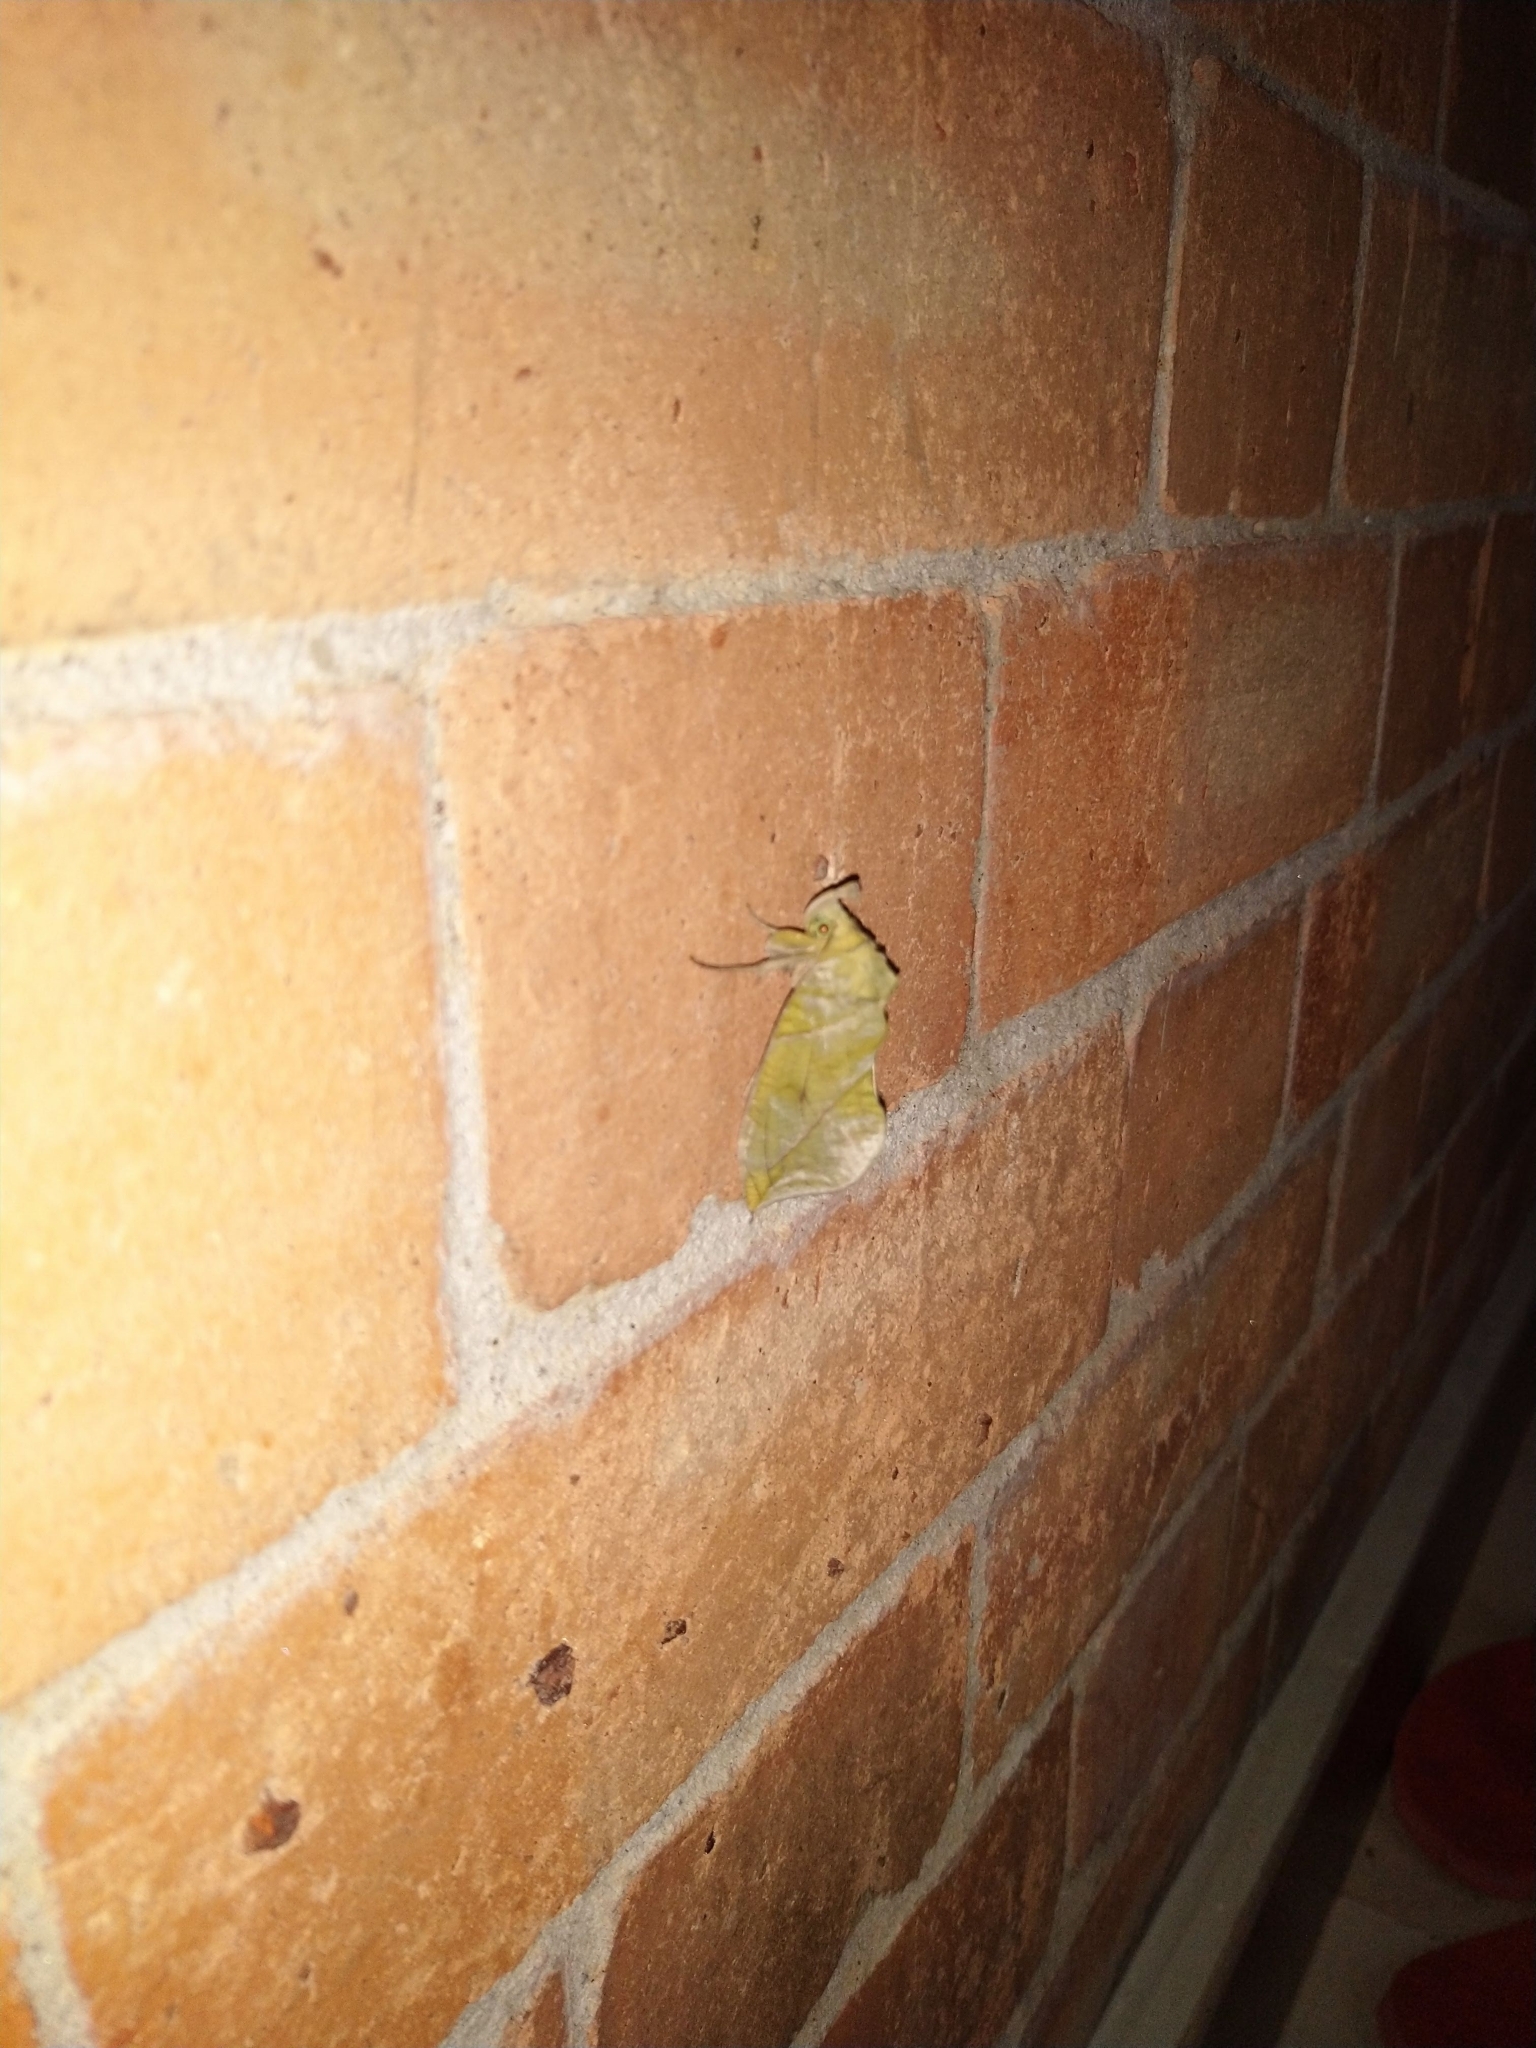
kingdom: Animalia
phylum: Arthropoda
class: Insecta
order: Lepidoptera
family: Erebidae
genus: Eudocima
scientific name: Eudocima hypermnestra
